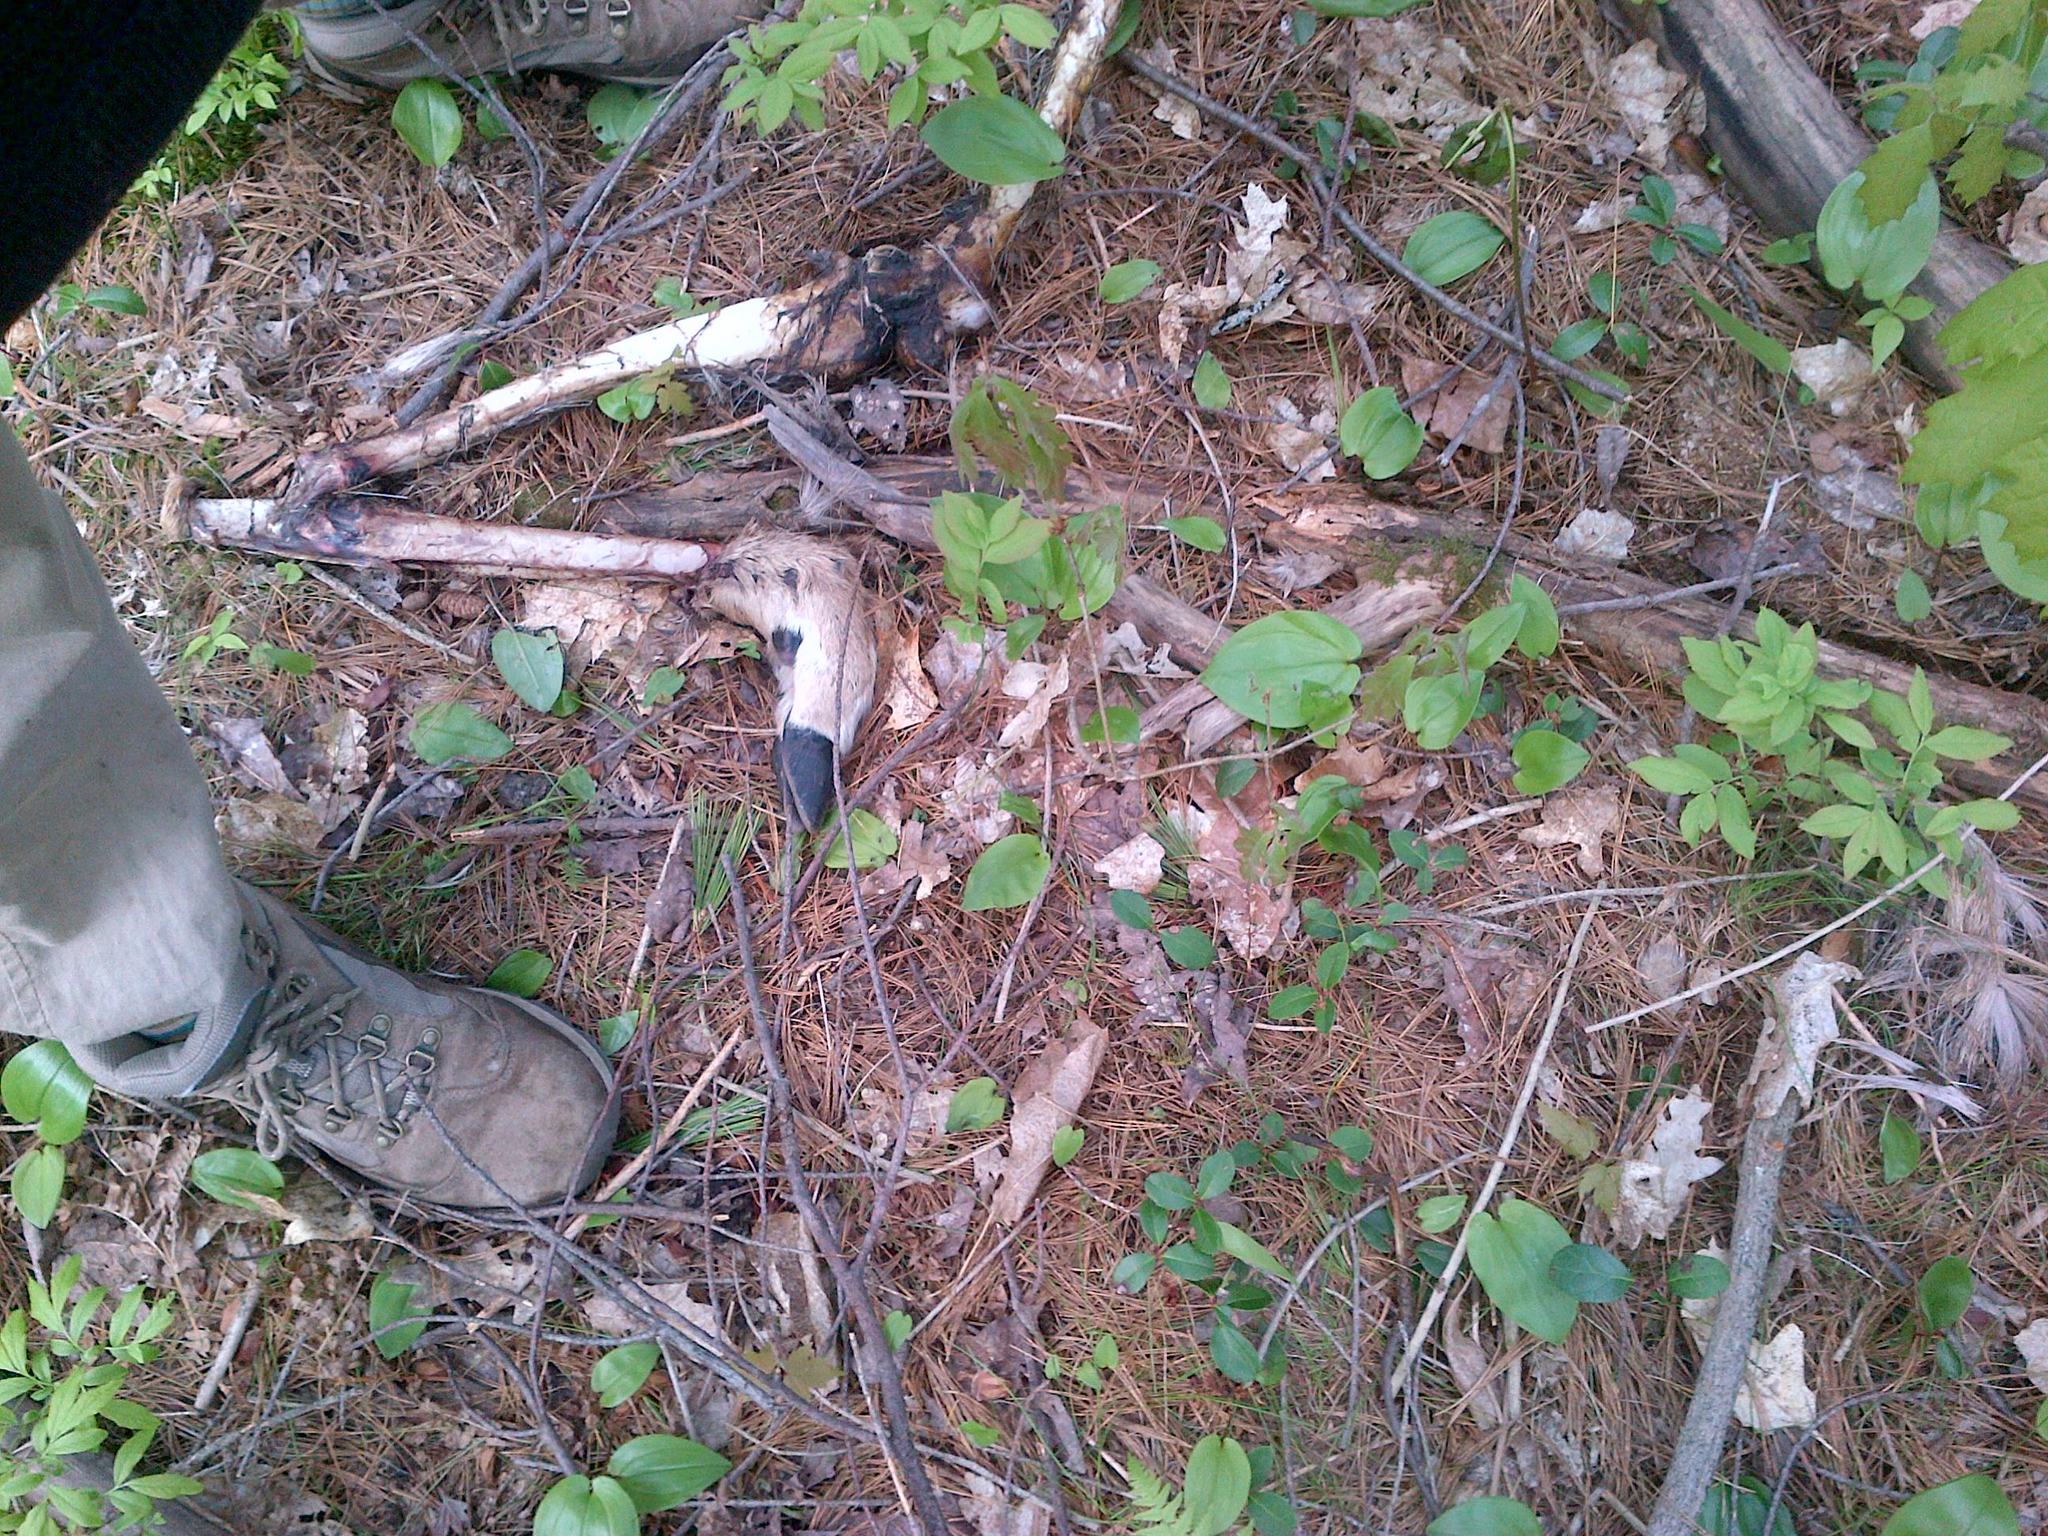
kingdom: Animalia
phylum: Chordata
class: Mammalia
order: Artiodactyla
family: Cervidae
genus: Odocoileus
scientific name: Odocoileus virginianus
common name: White-tailed deer
